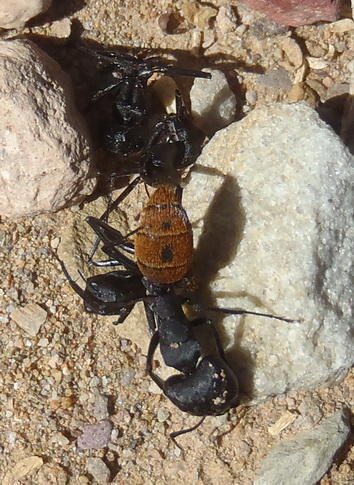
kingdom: Animalia
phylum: Arthropoda
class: Insecta
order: Hymenoptera
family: Formicidae
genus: Camponotus
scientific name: Camponotus fulvopilosus
